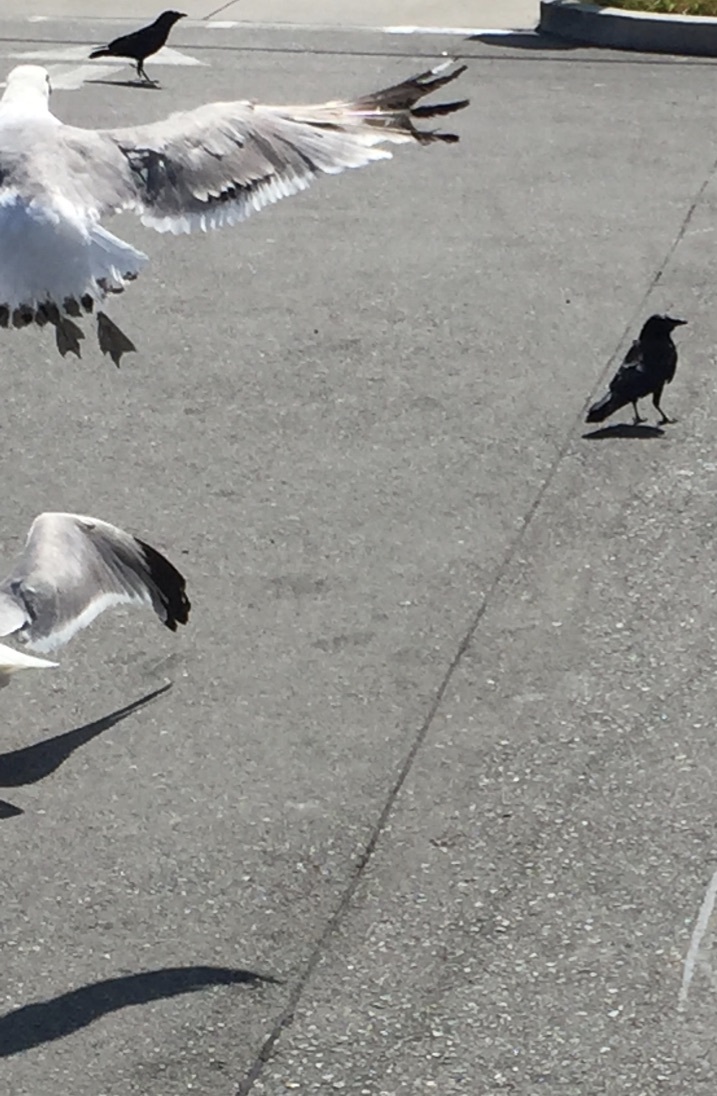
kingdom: Animalia
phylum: Chordata
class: Aves
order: Passeriformes
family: Corvidae
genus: Corvus
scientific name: Corvus brachyrhynchos
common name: American crow
